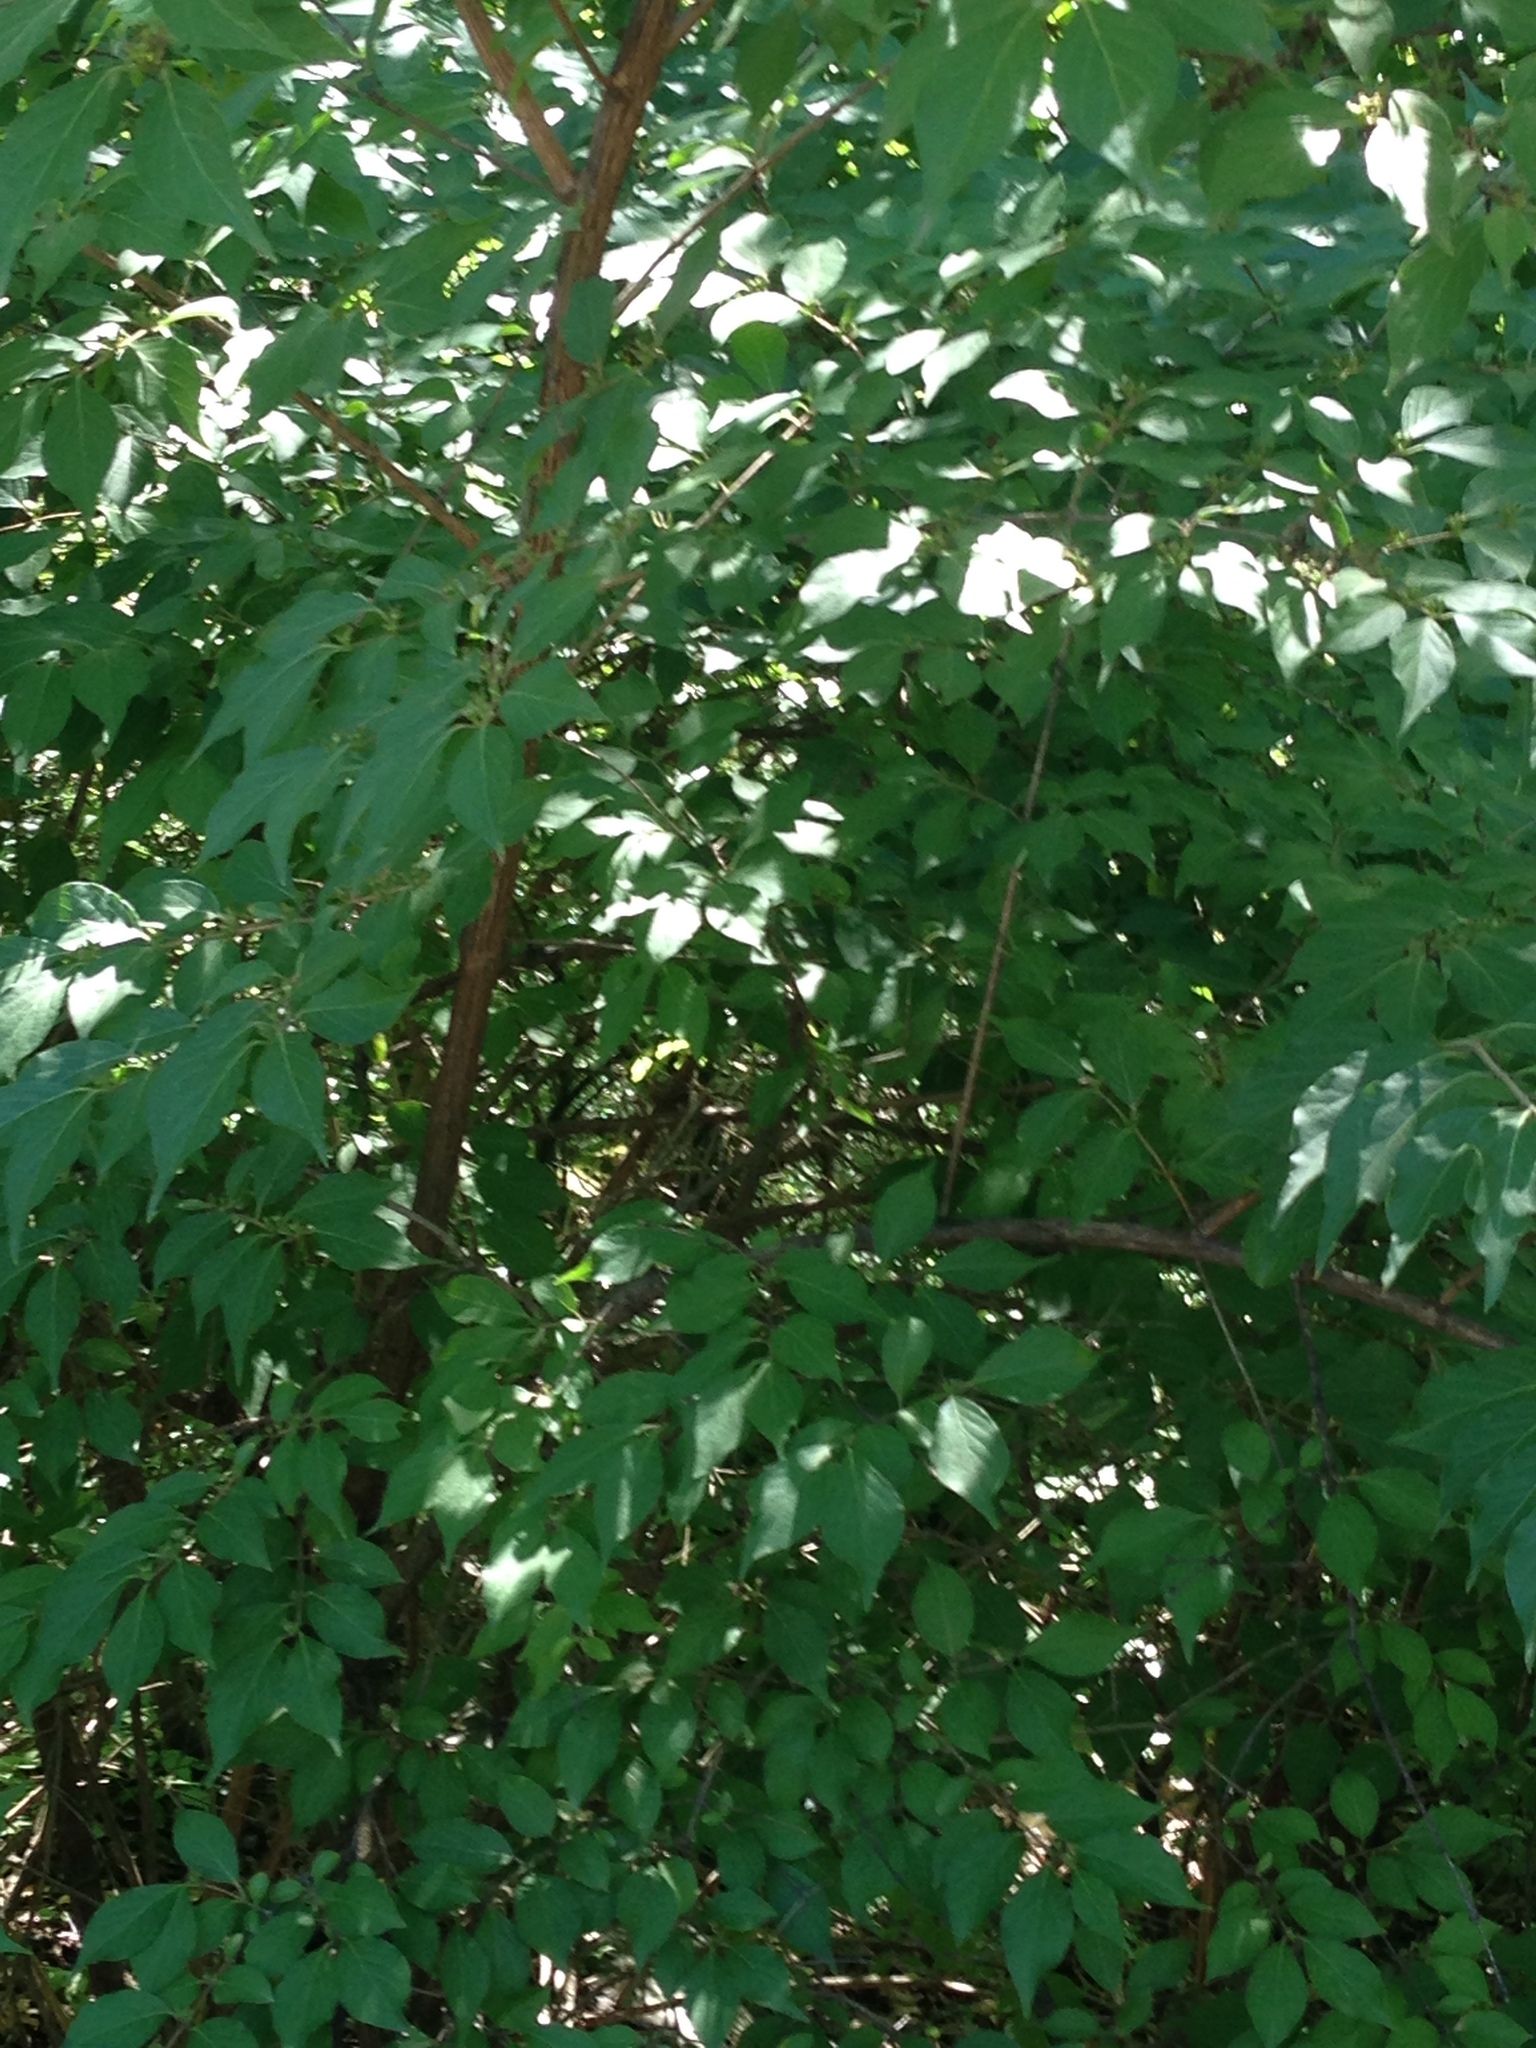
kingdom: Plantae
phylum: Tracheophyta
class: Magnoliopsida
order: Dipsacales
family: Caprifoliaceae
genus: Lonicera
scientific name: Lonicera maackii
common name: Amur honeysuckle
